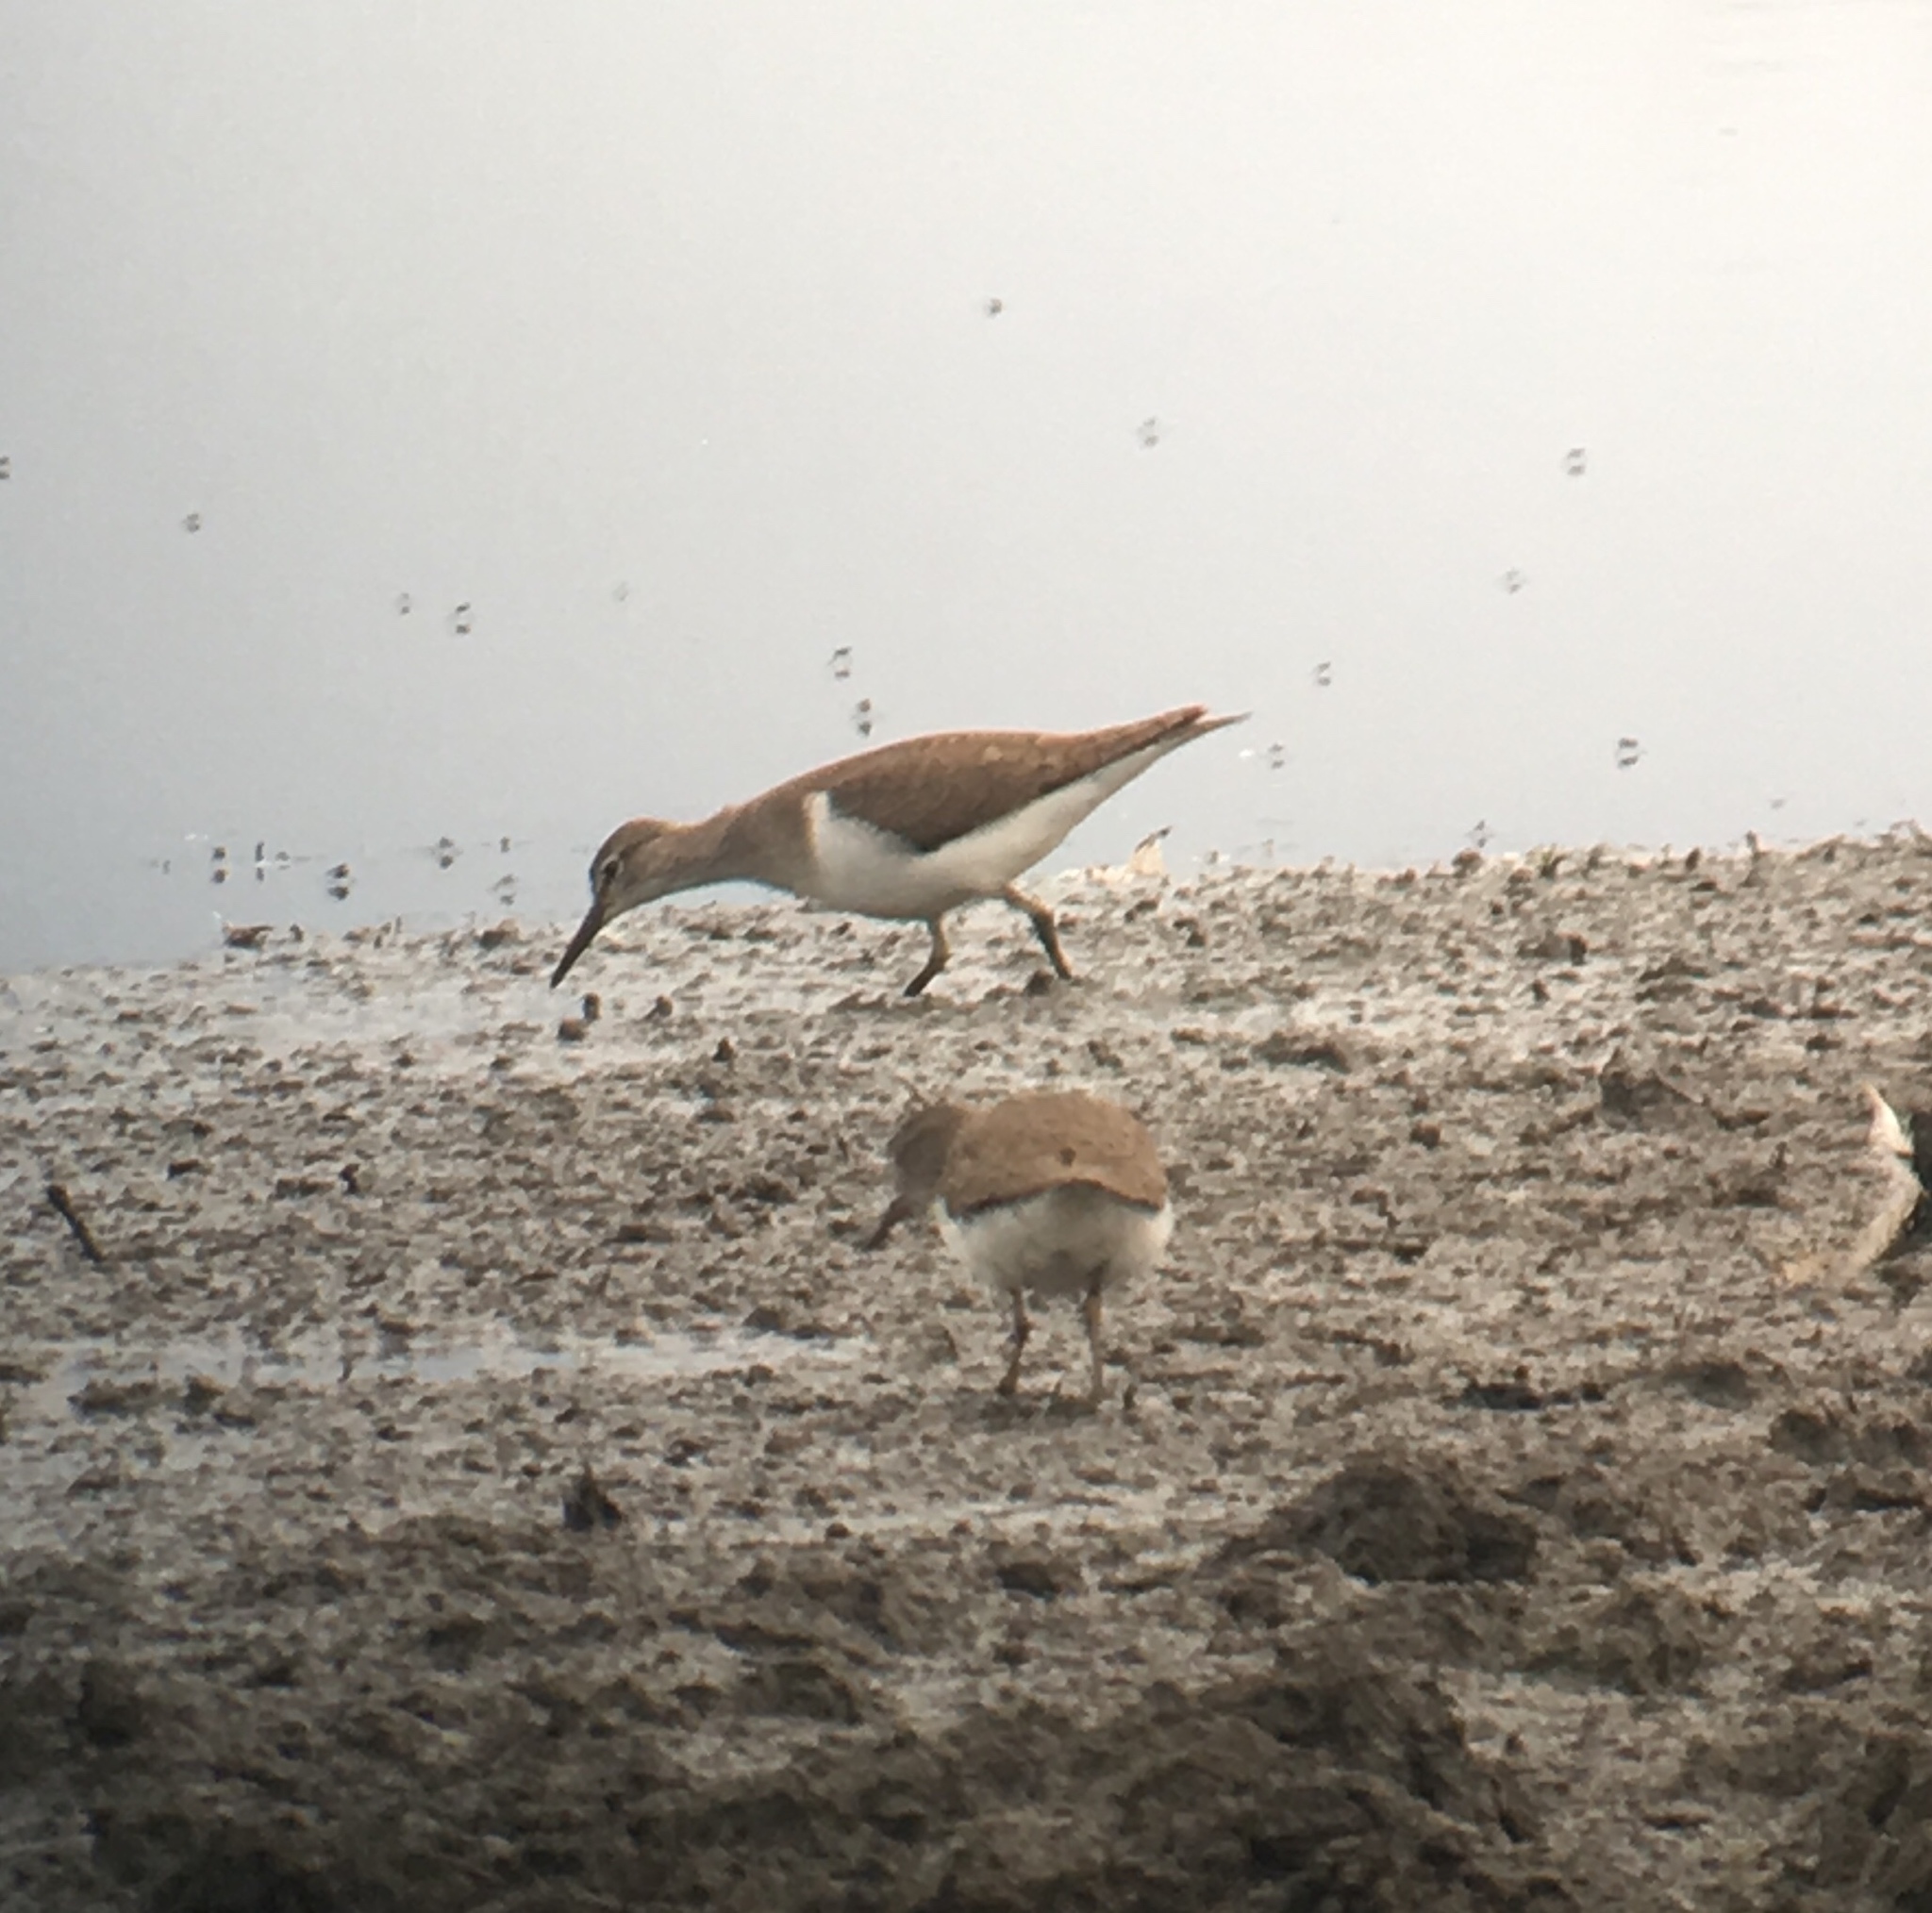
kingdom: Animalia
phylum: Chordata
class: Aves
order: Charadriiformes
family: Scolopacidae
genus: Actitis
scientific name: Actitis hypoleucos
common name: Common sandpiper
